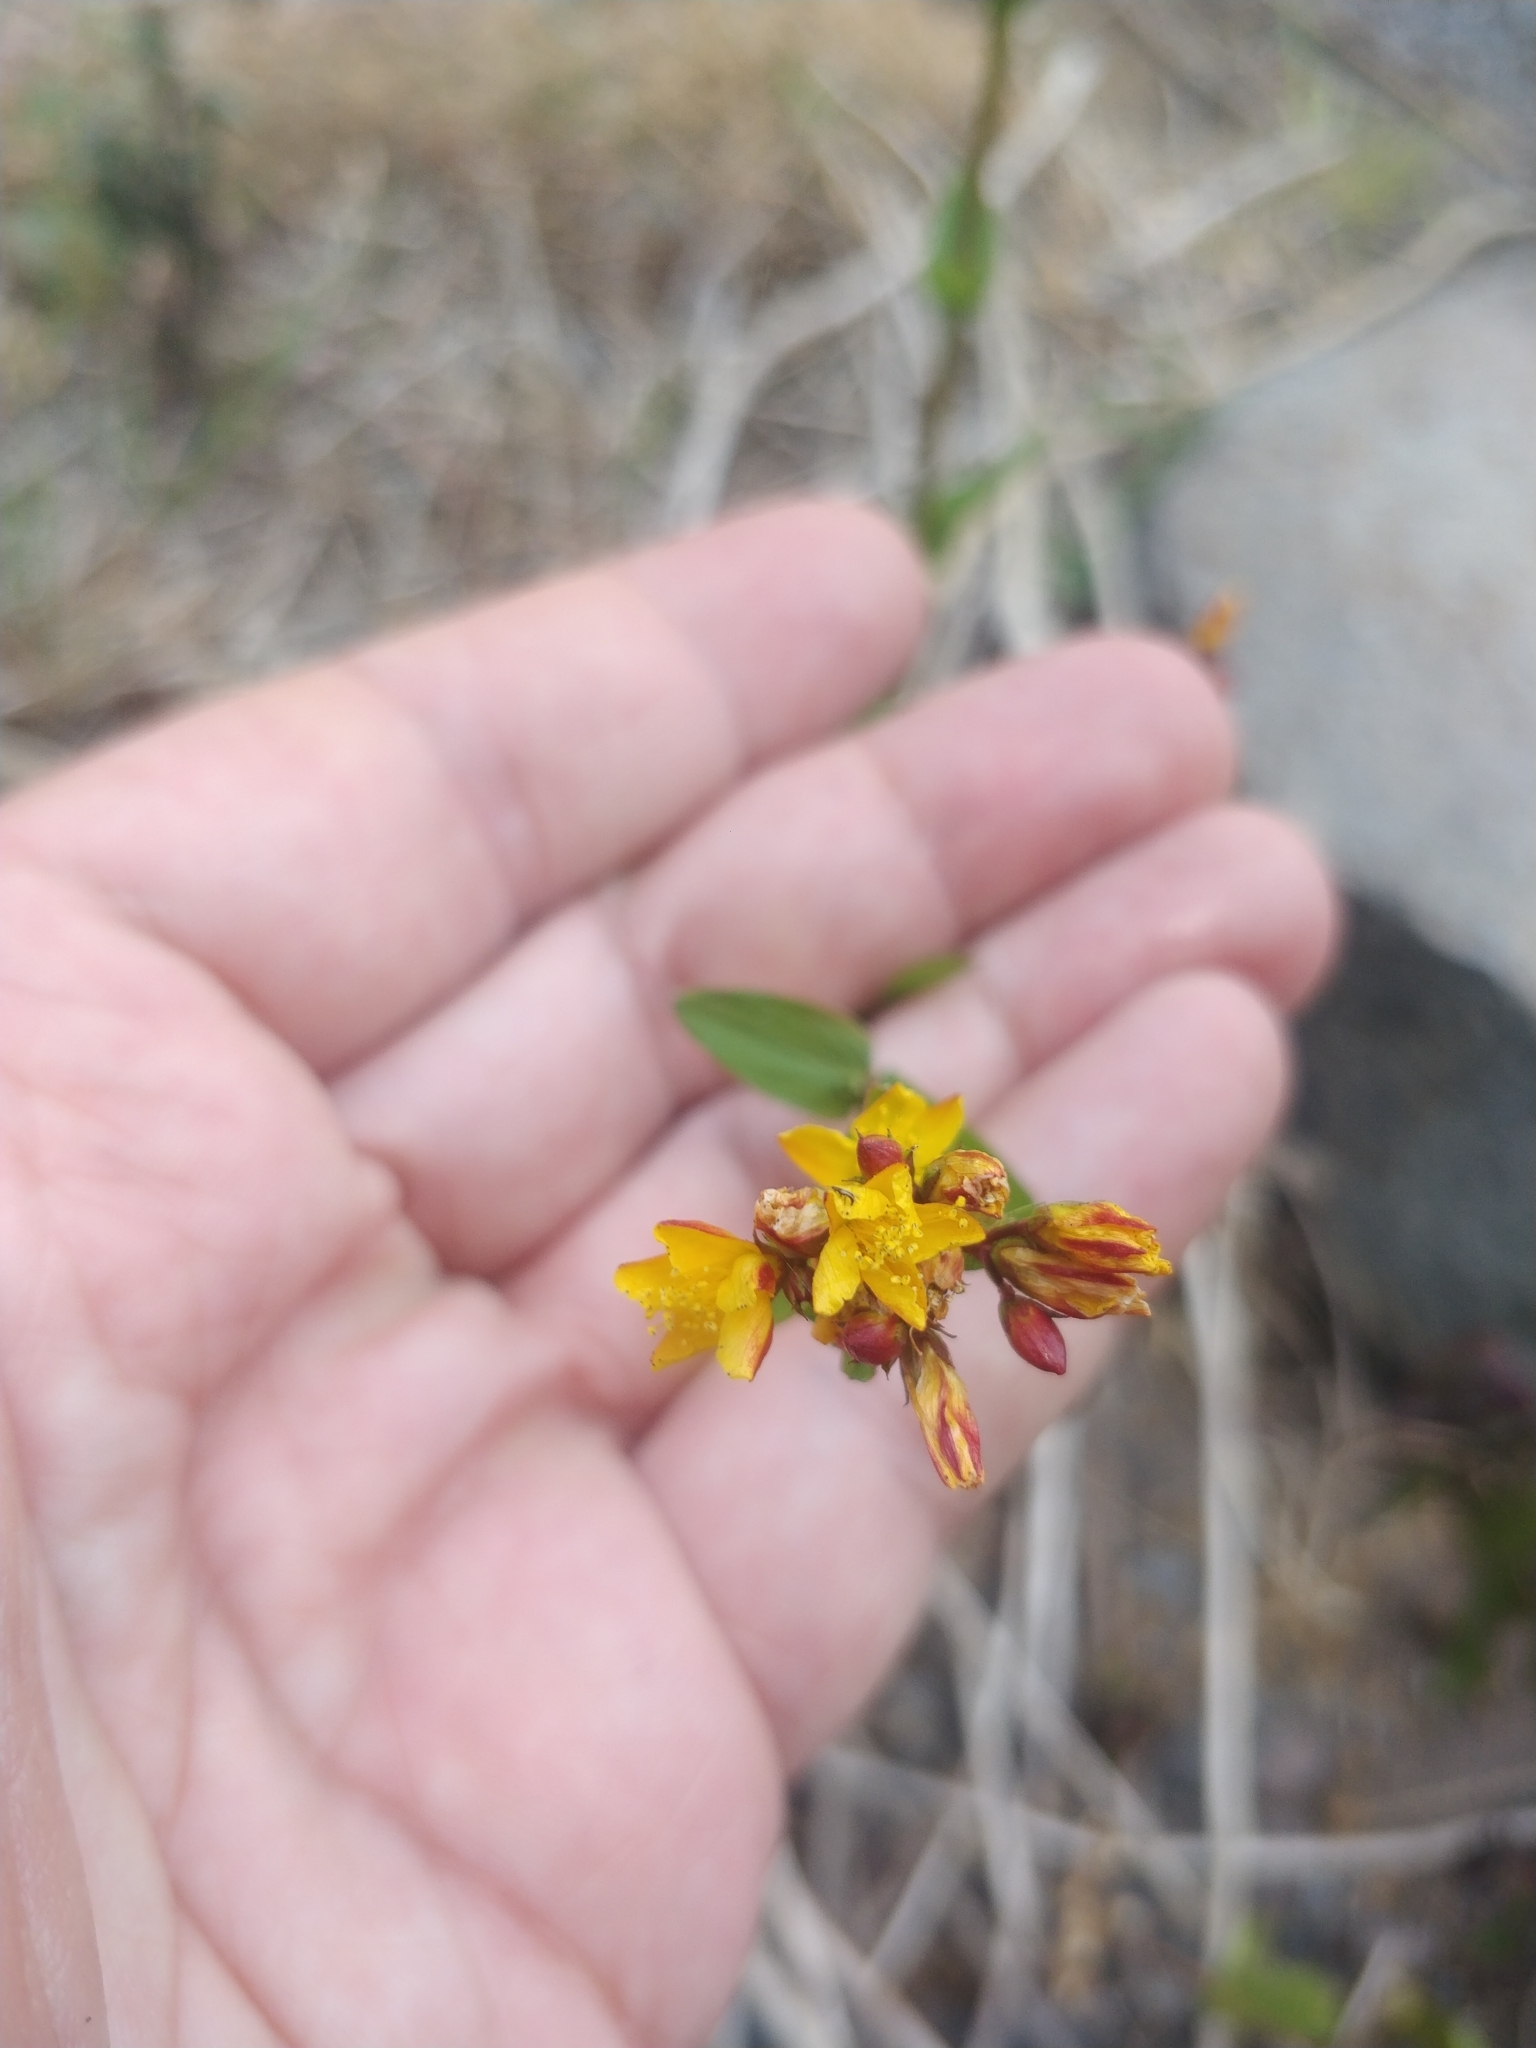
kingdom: Plantae
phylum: Tracheophyta
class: Magnoliopsida
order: Malpighiales
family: Hypericaceae
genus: Hypericum
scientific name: Hypericum undulatum
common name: Wavy st. john's-wort
